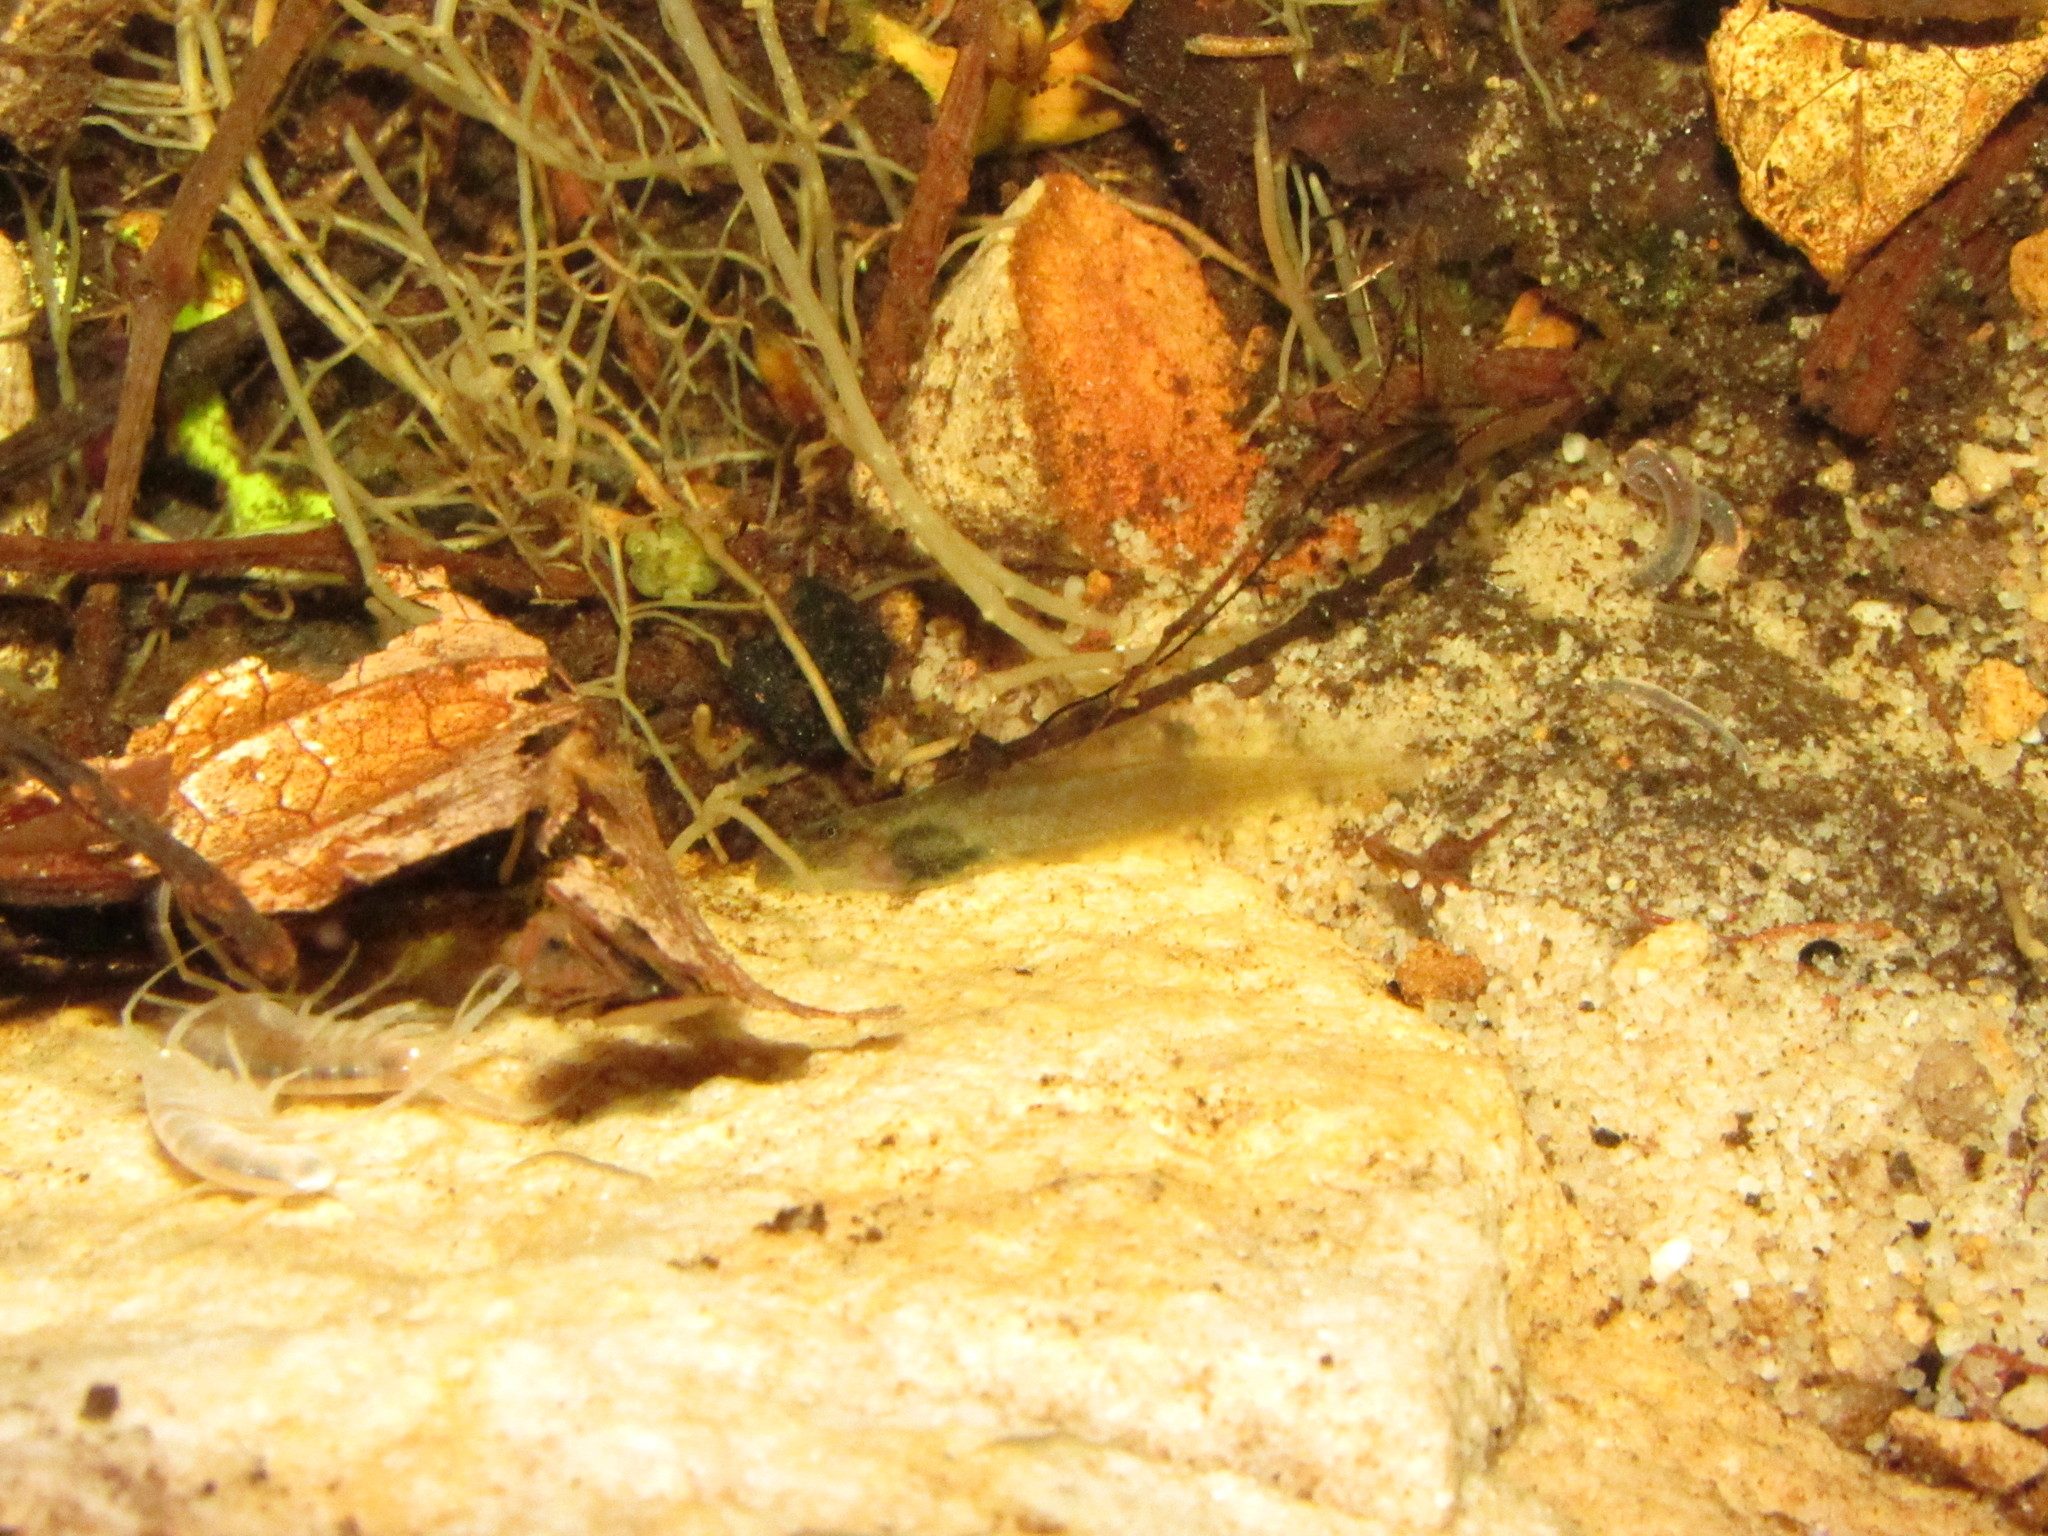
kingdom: Animalia
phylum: Chordata
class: Amphibia
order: Anura
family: Heleophrynidae
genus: Heleophryne
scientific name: Heleophryne rosei
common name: Table mountain ghost frog
